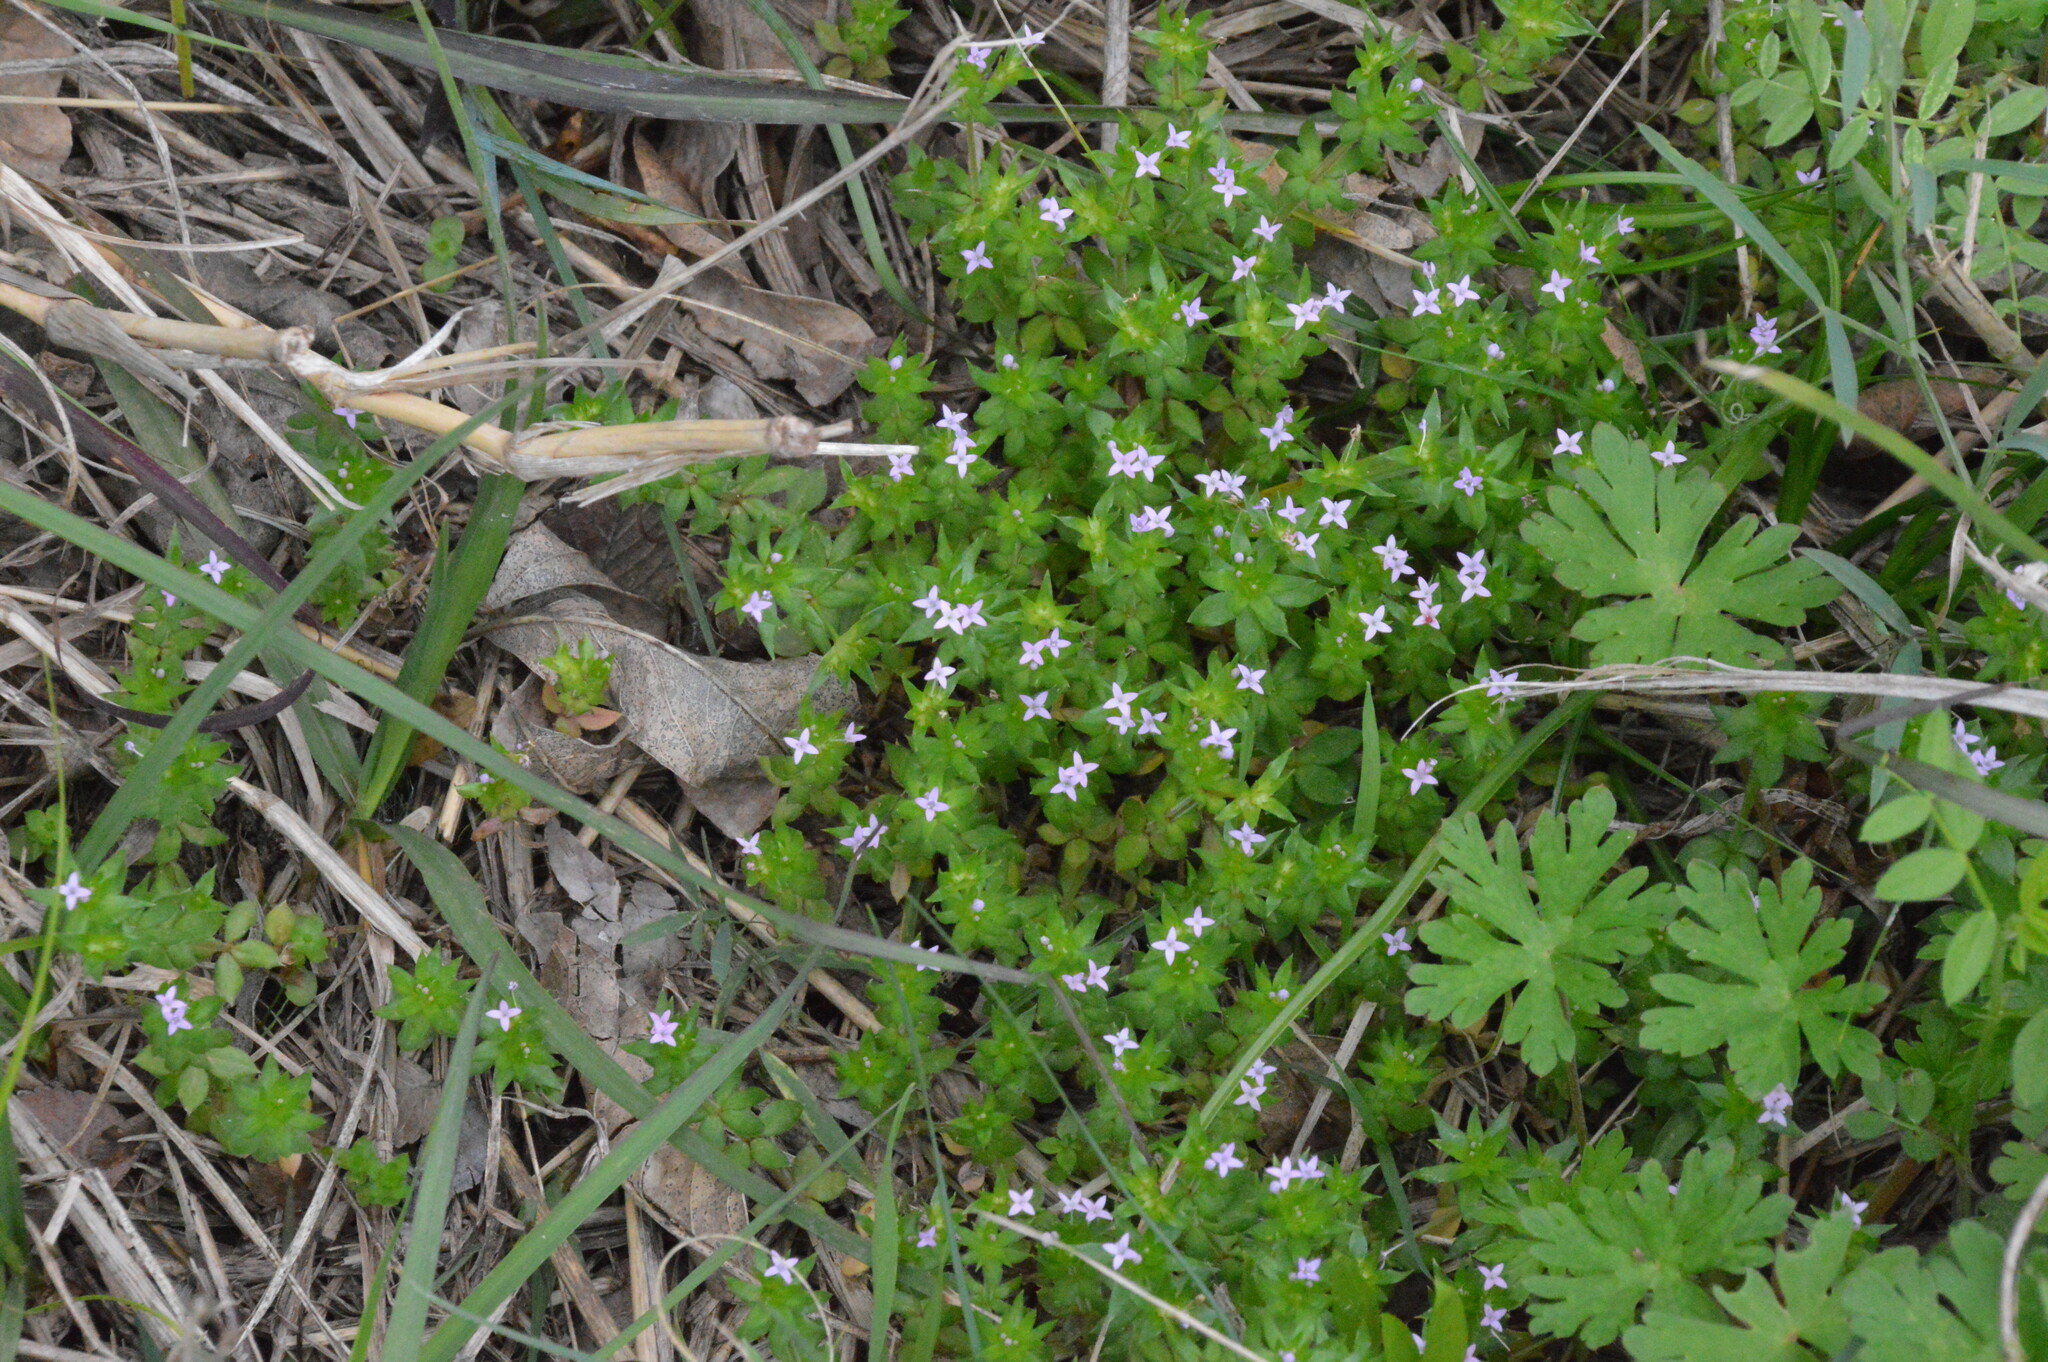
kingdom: Plantae
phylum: Tracheophyta
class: Magnoliopsida
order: Gentianales
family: Rubiaceae
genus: Sherardia
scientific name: Sherardia arvensis
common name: Field madder
